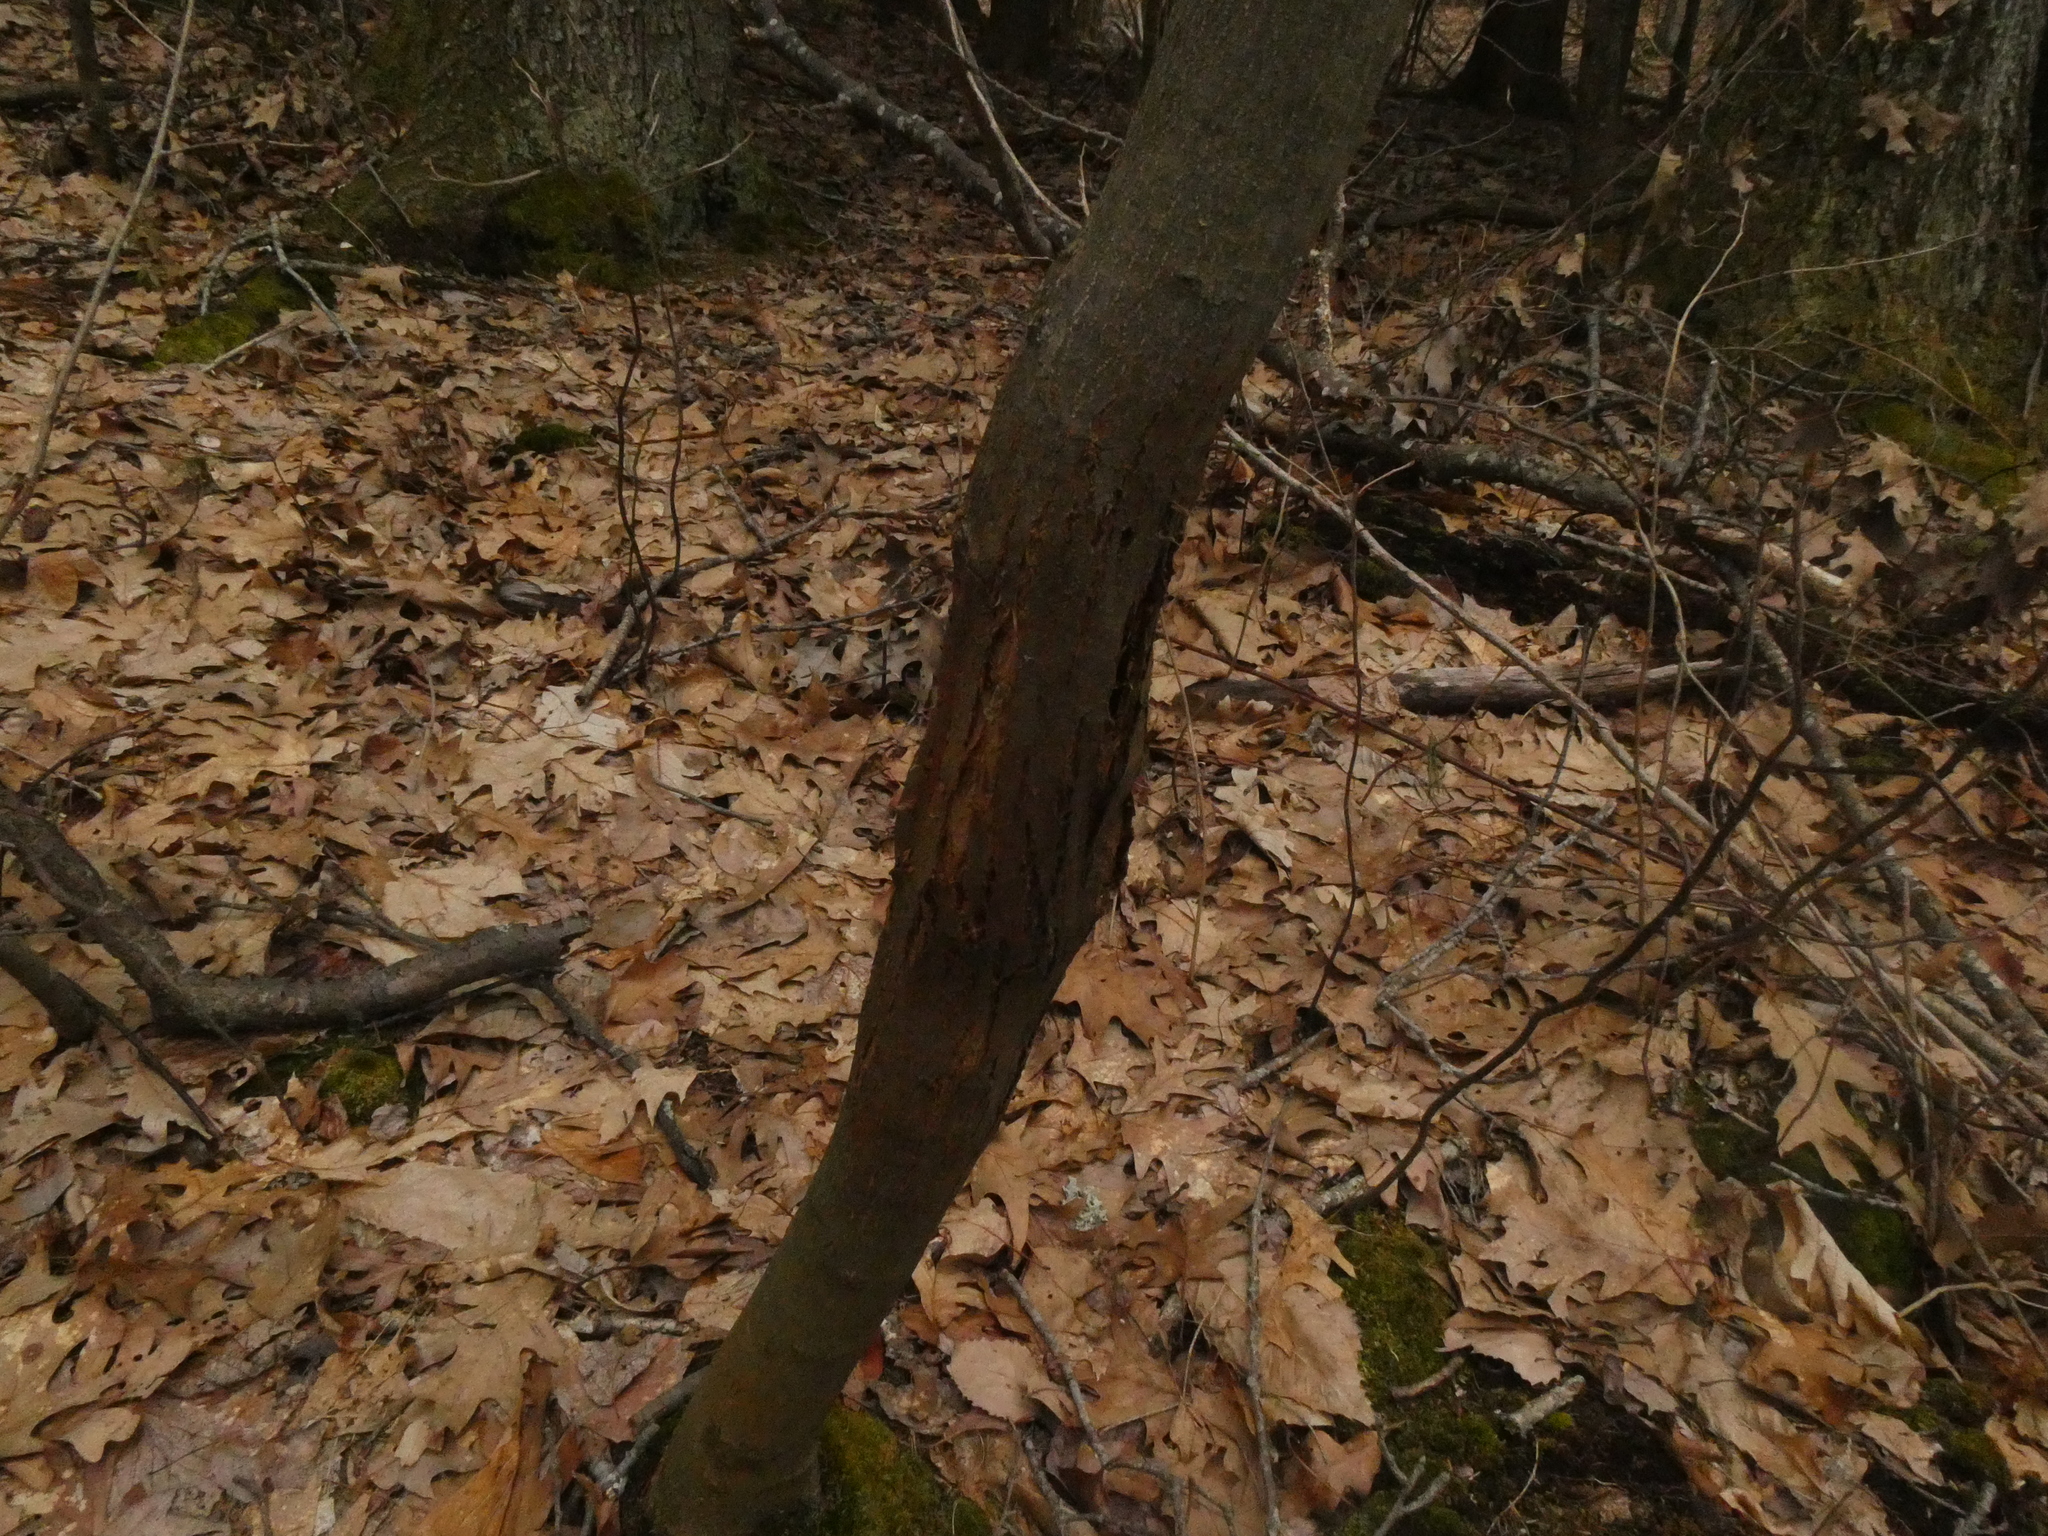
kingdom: Plantae
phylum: Tracheophyta
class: Magnoliopsida
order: Fagales
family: Fagaceae
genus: Castanea
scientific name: Castanea dentata
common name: American chestnut
